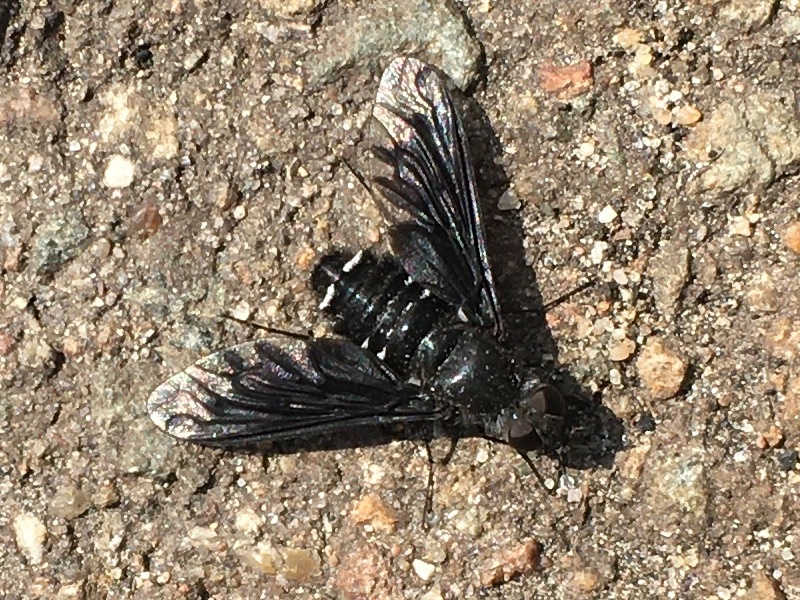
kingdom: Animalia
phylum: Arthropoda
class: Insecta
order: Diptera
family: Bombyliidae
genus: Anthrax
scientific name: Anthrax anthrax
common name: Anthracite bee-fly
